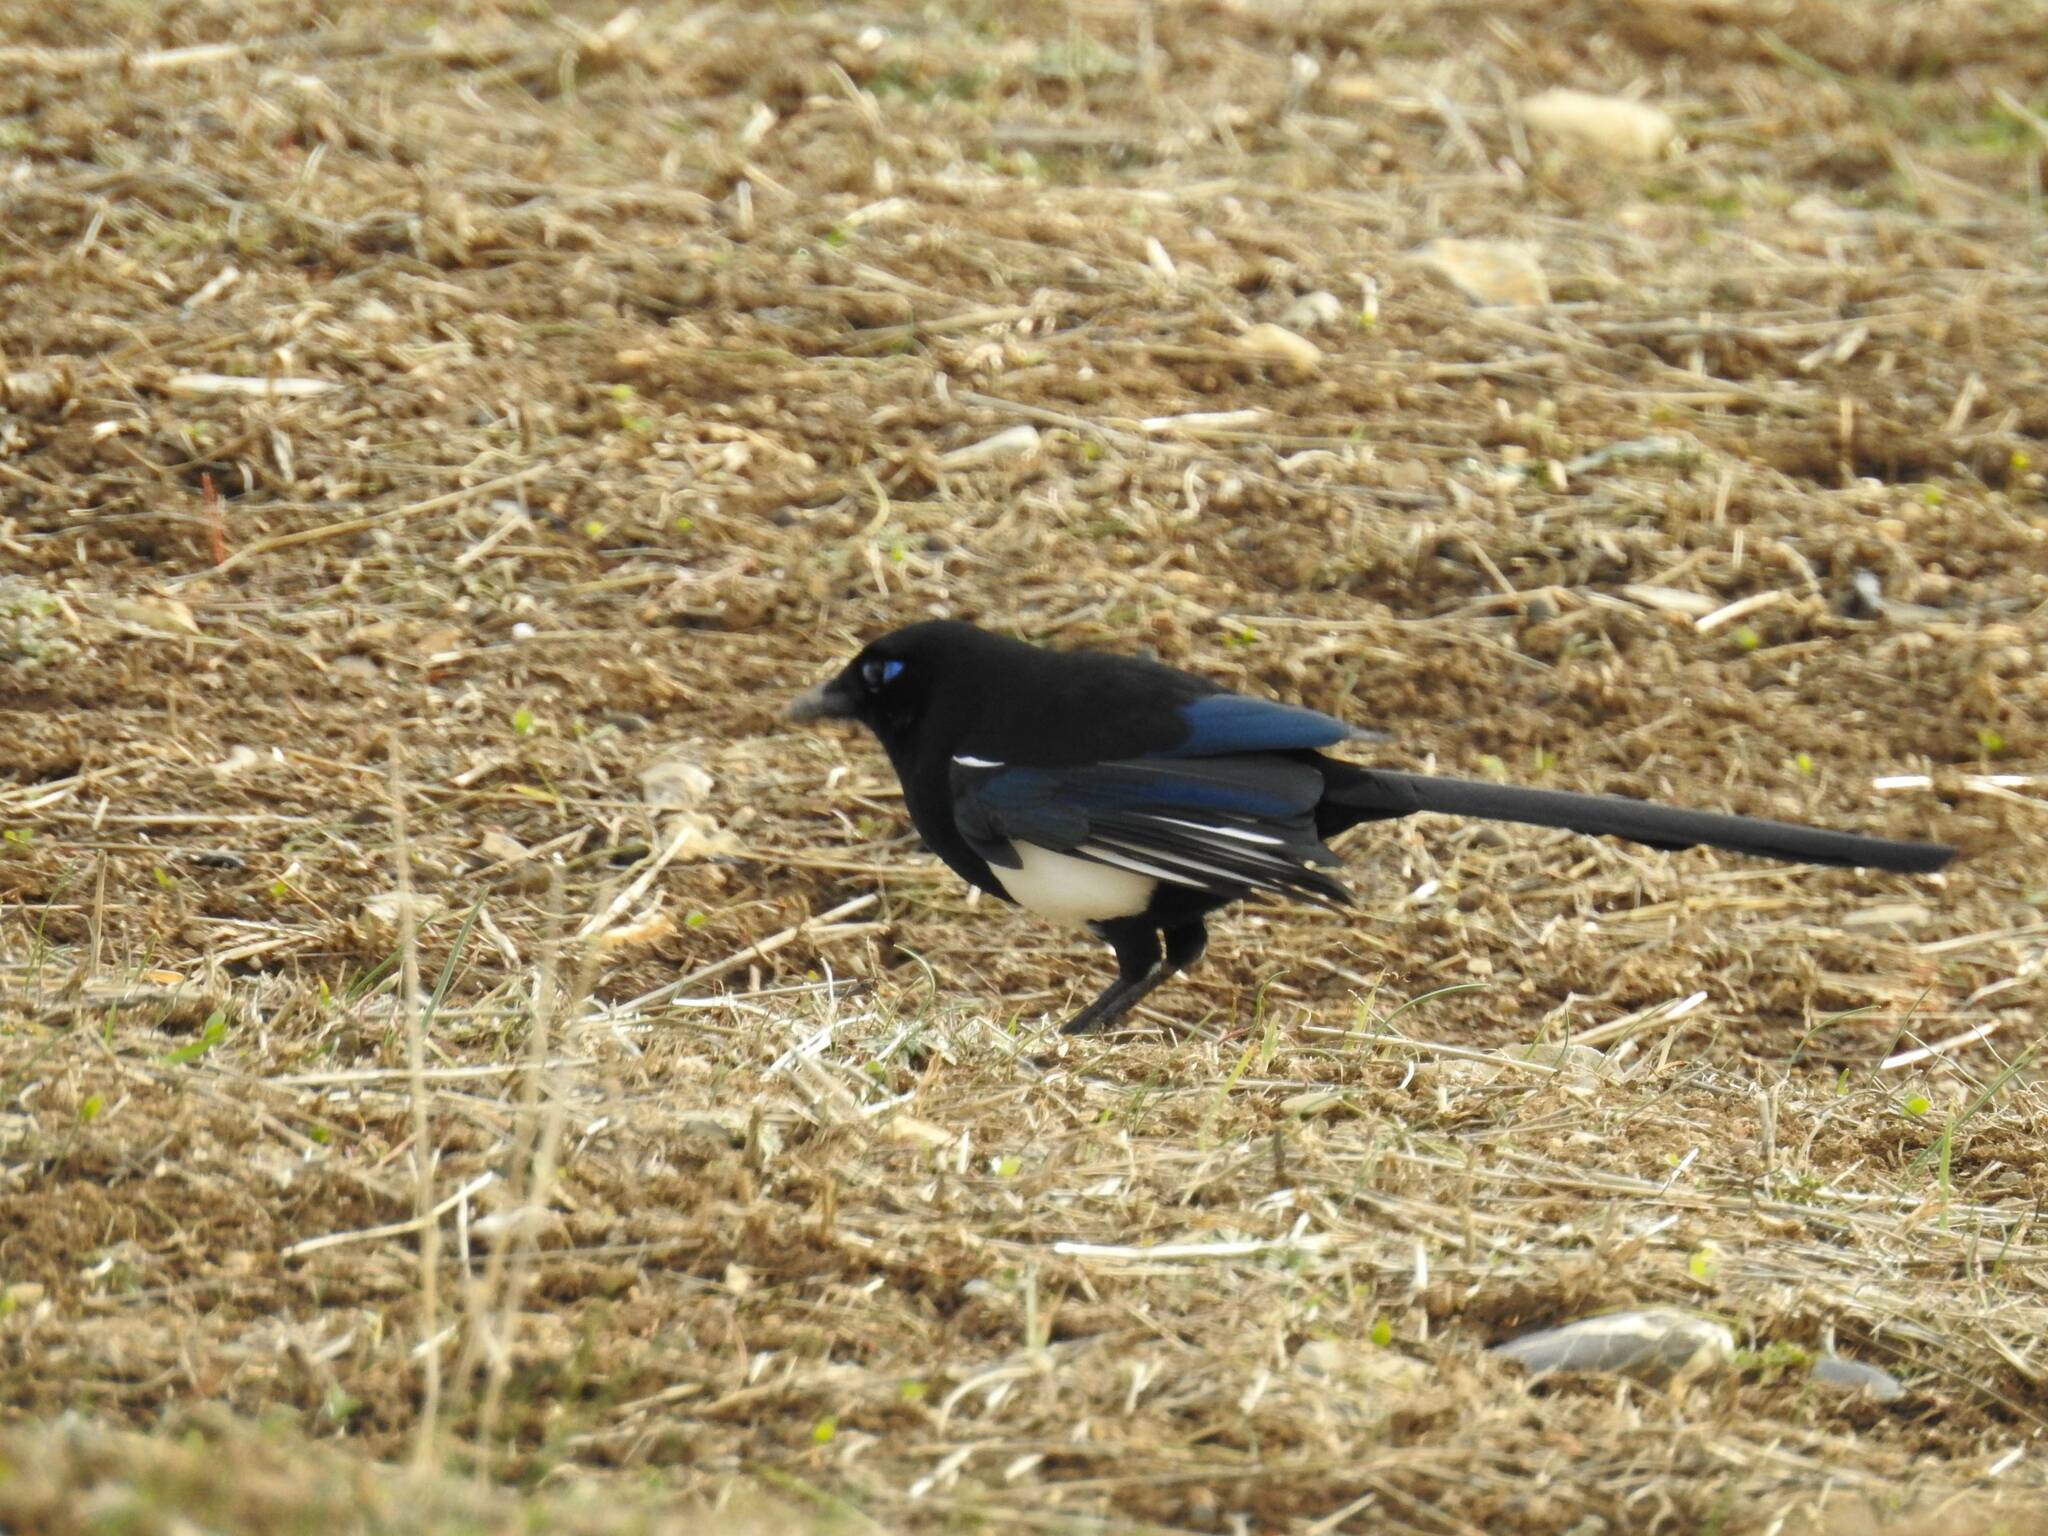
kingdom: Animalia
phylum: Chordata
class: Aves
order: Passeriformes
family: Corvidae
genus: Pica
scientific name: Pica mauritanica
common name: Maghreb magpie
